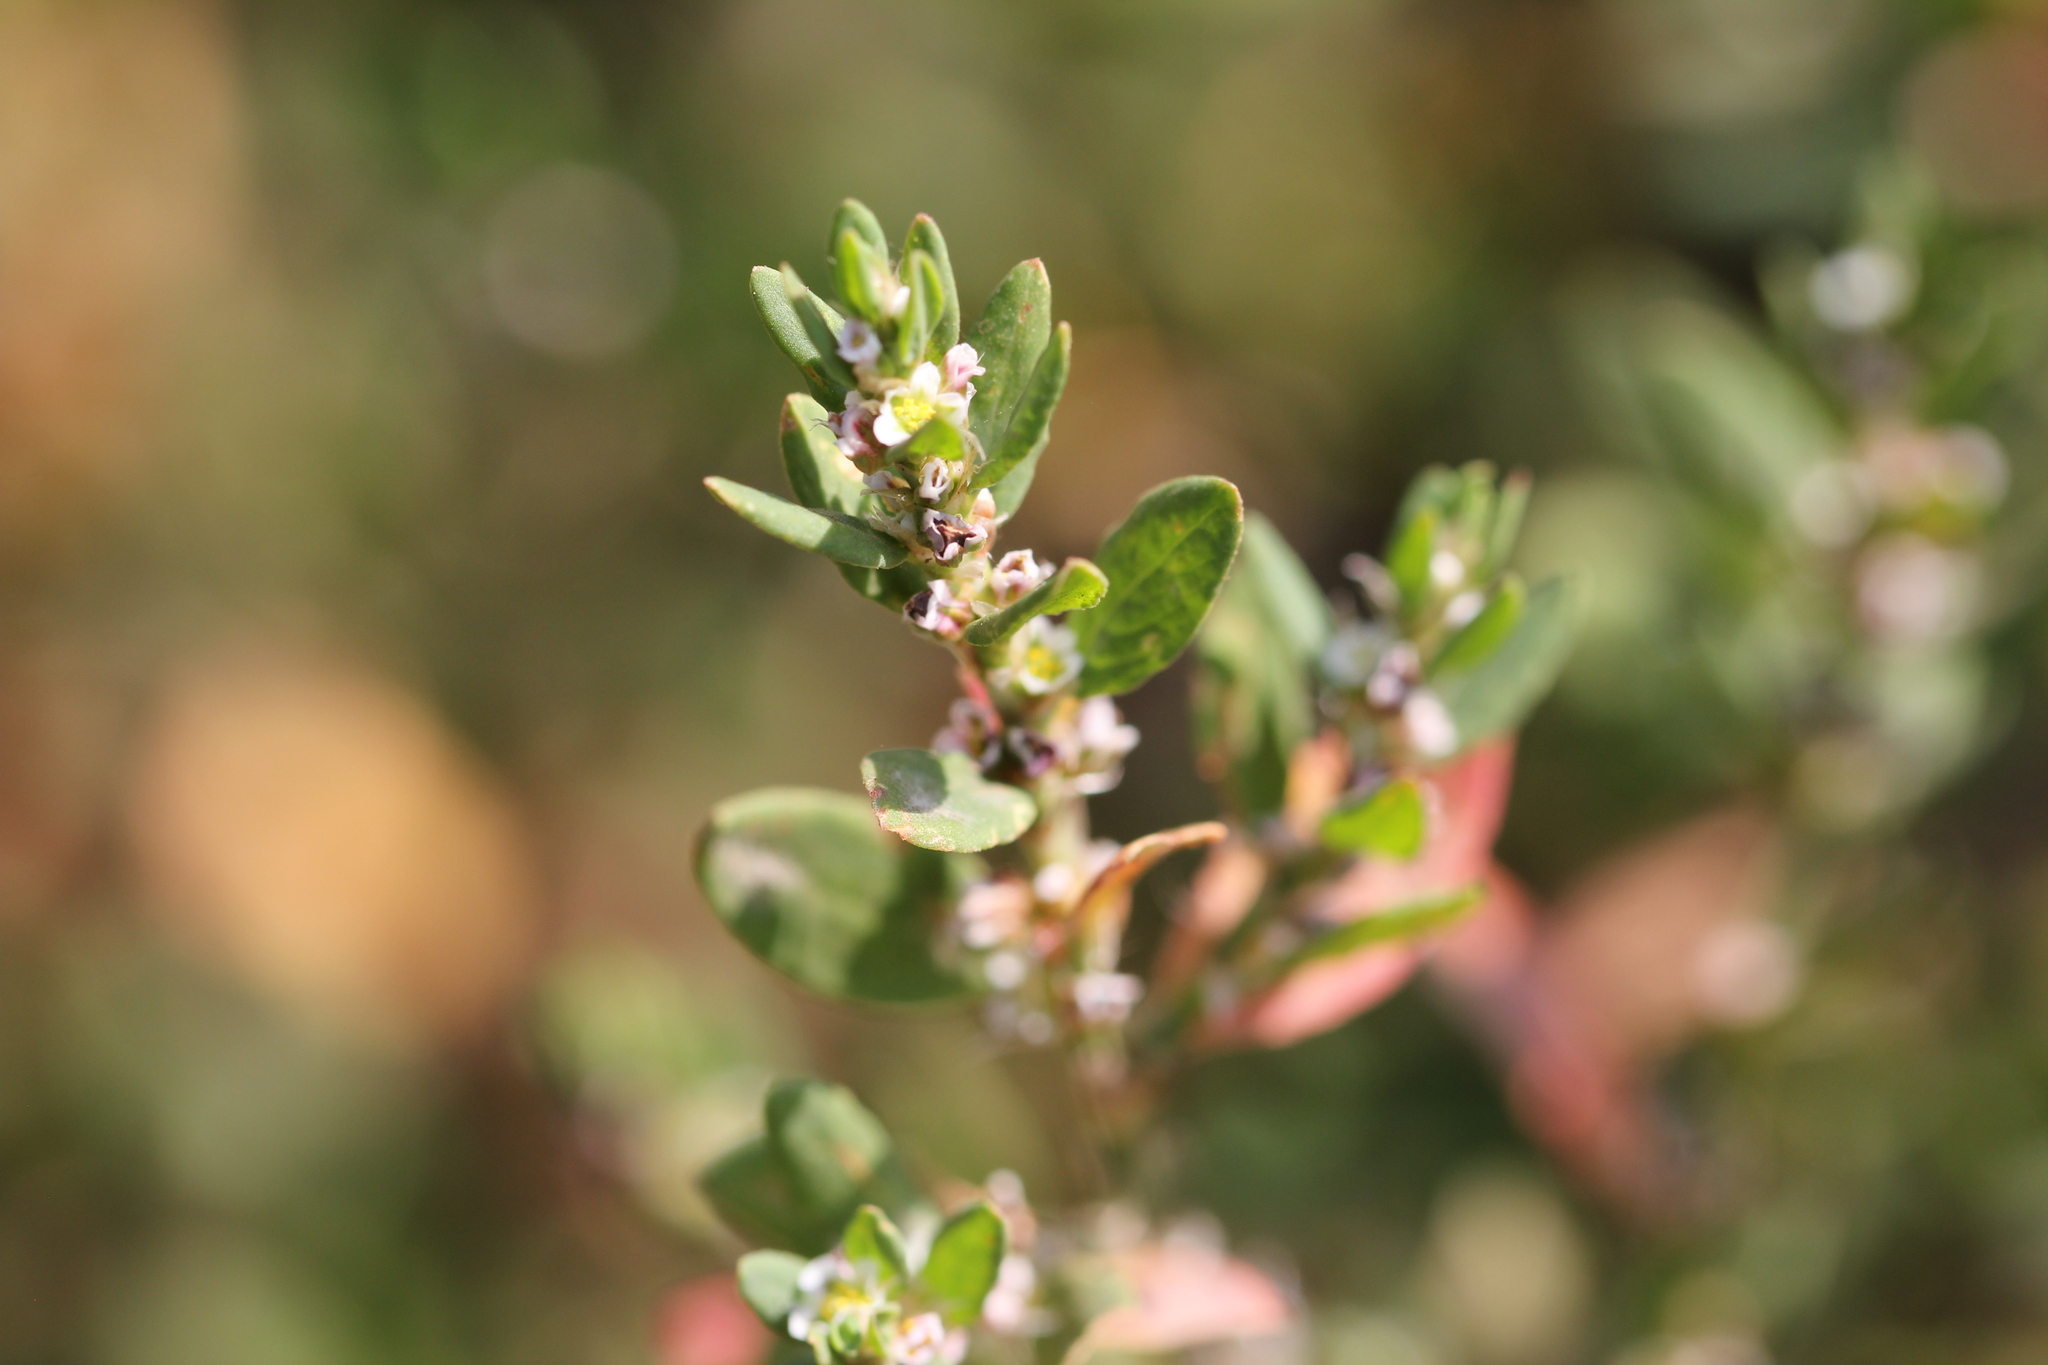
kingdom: Plantae
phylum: Tracheophyta
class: Magnoliopsida
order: Caryophyllales
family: Polygonaceae
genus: Polygonum
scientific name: Polygonum
